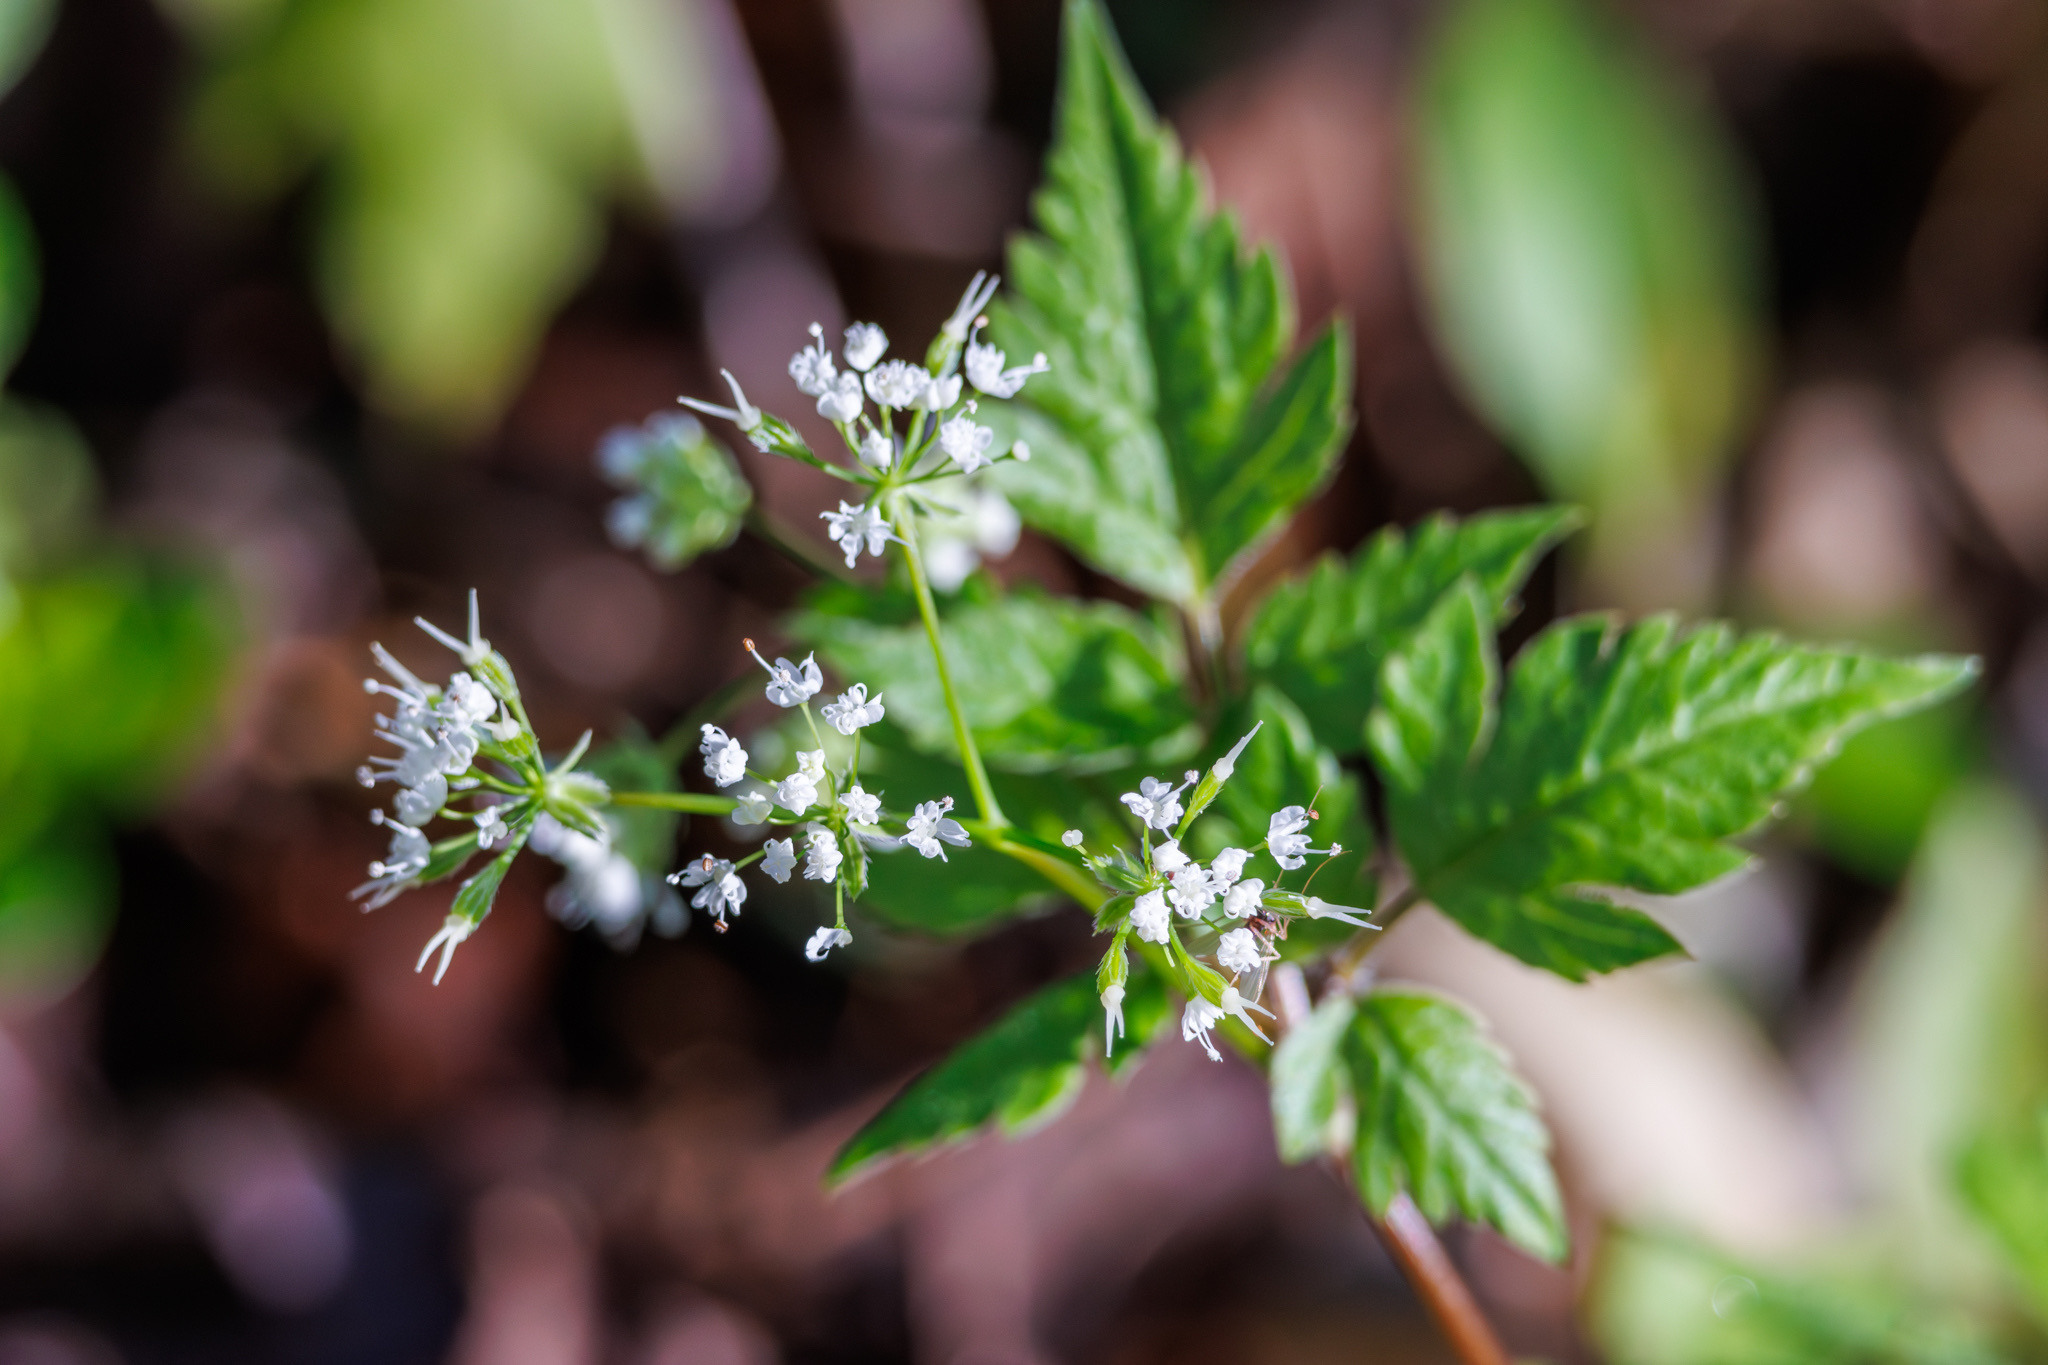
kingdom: Plantae
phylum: Tracheophyta
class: Magnoliopsida
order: Apiales
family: Apiaceae
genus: Osmorhiza
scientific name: Osmorhiza longistylis
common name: Smooth sweet cicely
